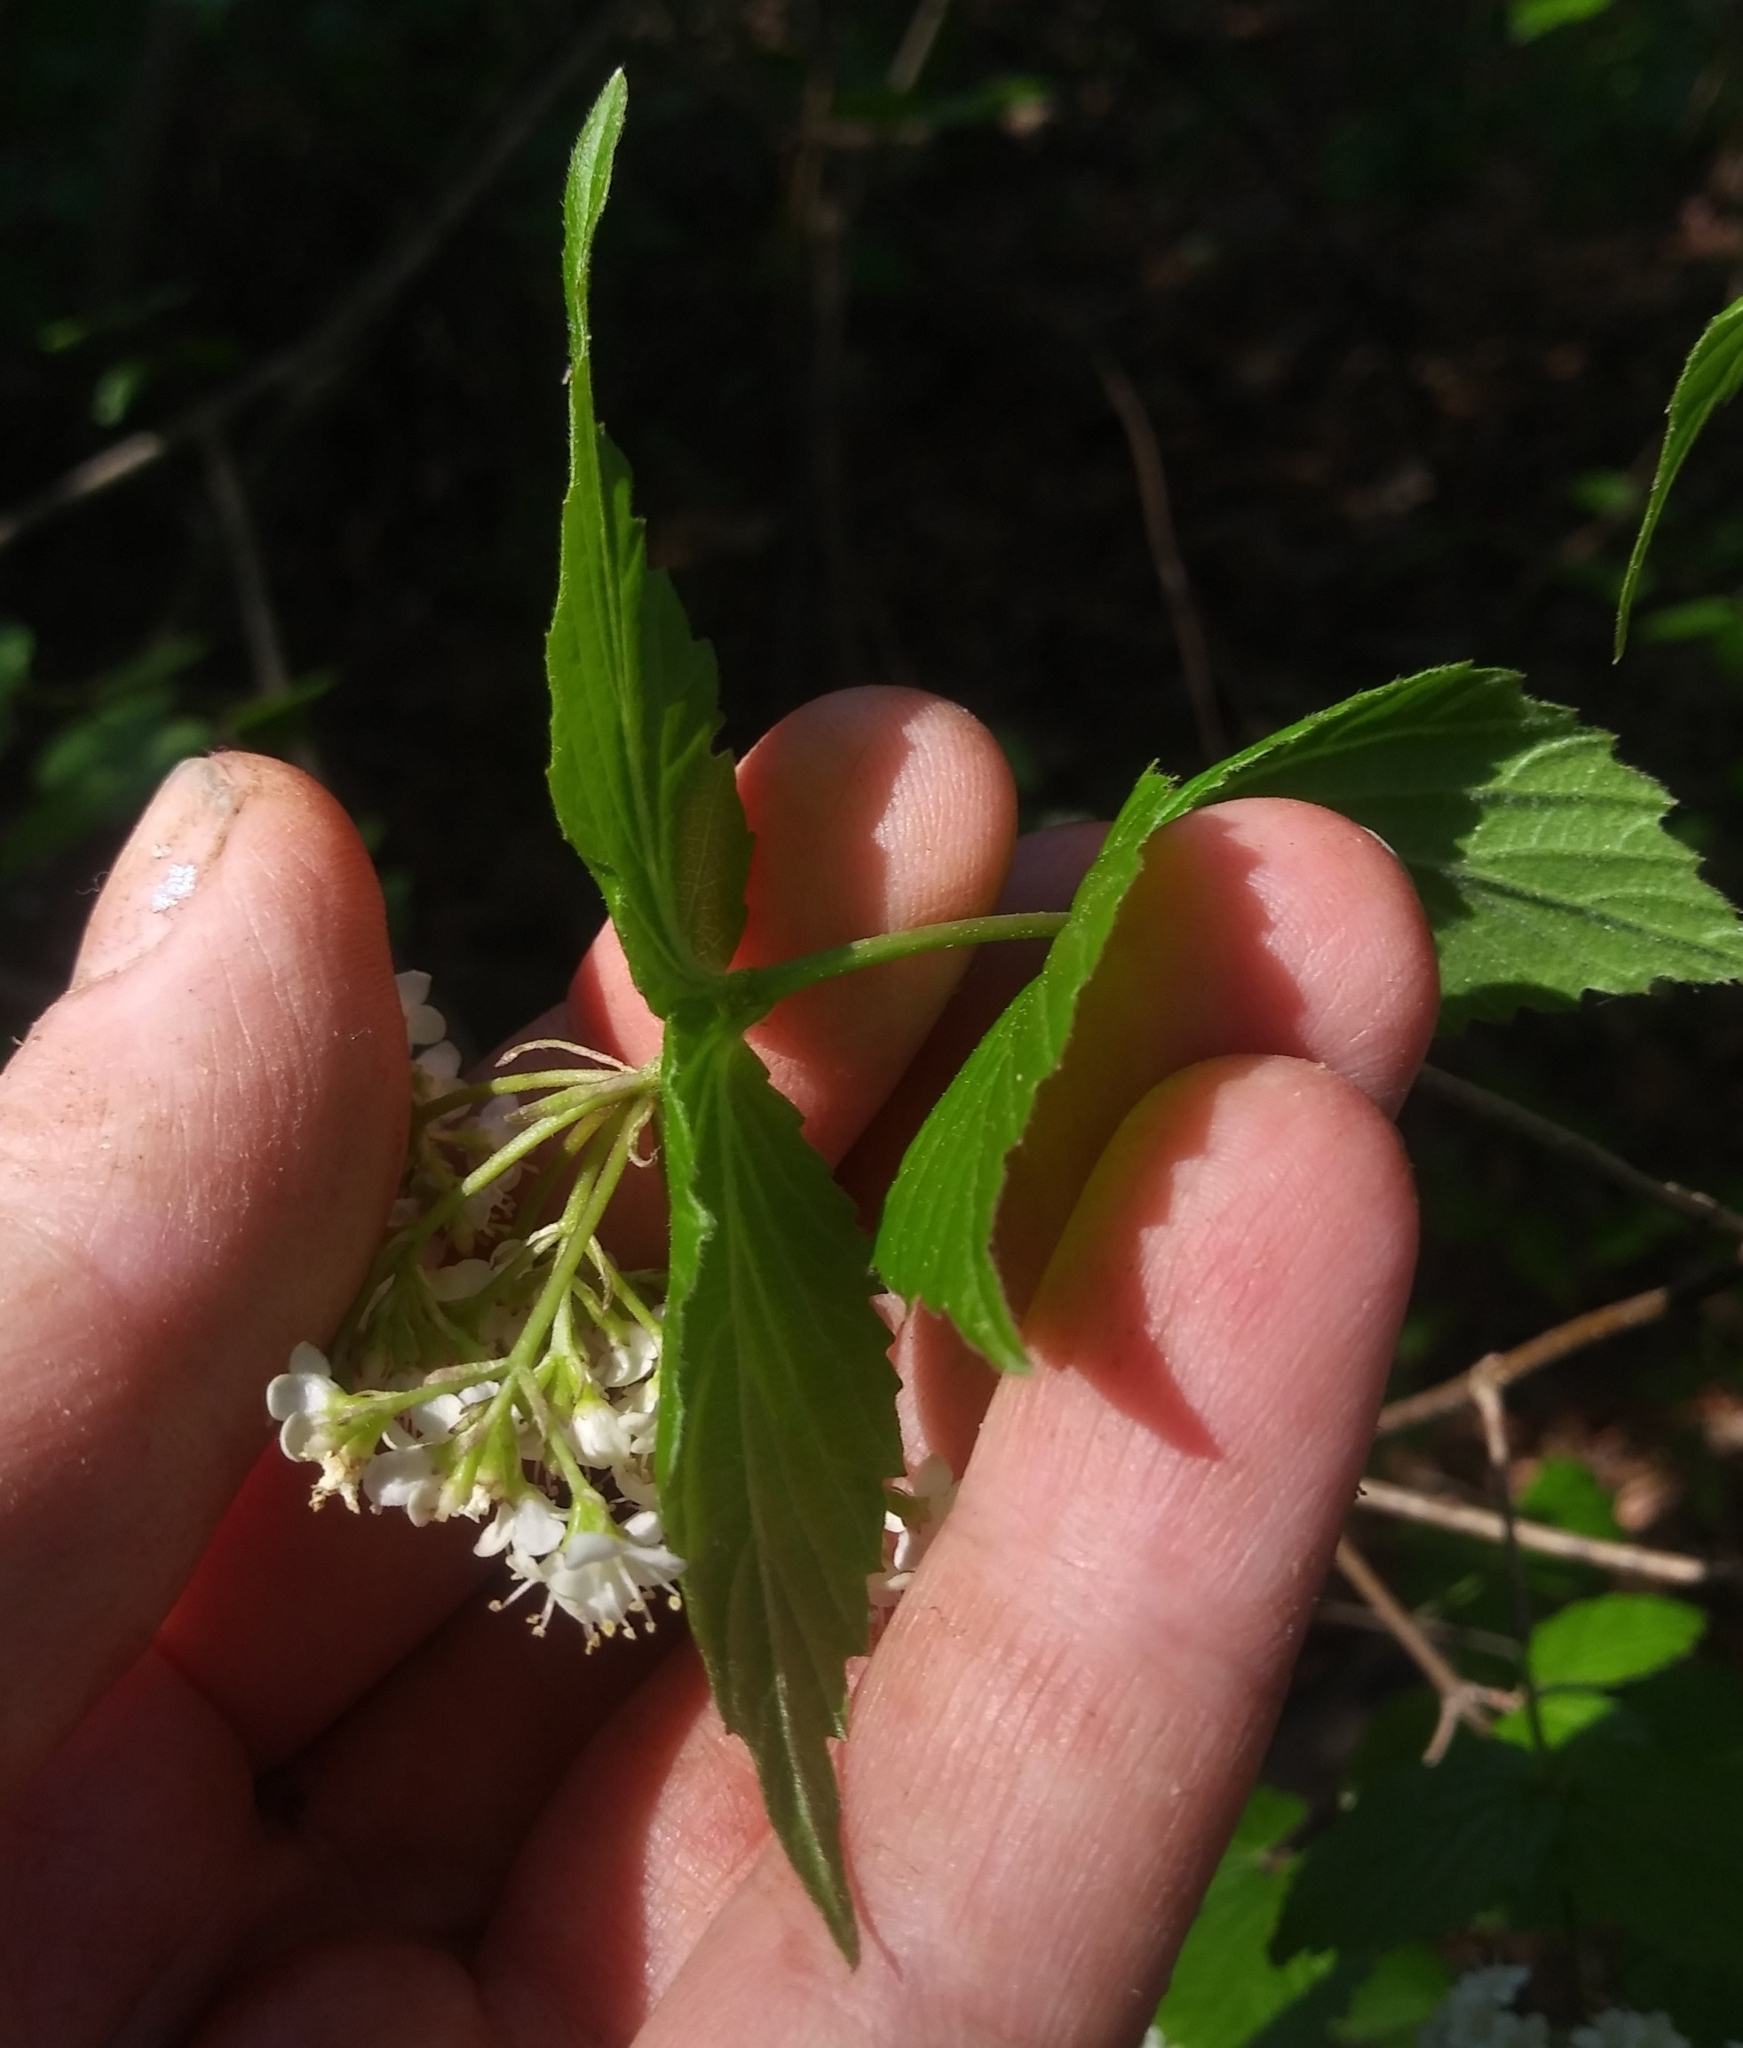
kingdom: Plantae
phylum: Tracheophyta
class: Magnoliopsida
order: Dipsacales
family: Viburnaceae
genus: Viburnum
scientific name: Viburnum rafinesqueanum
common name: Downy arrow-wood
